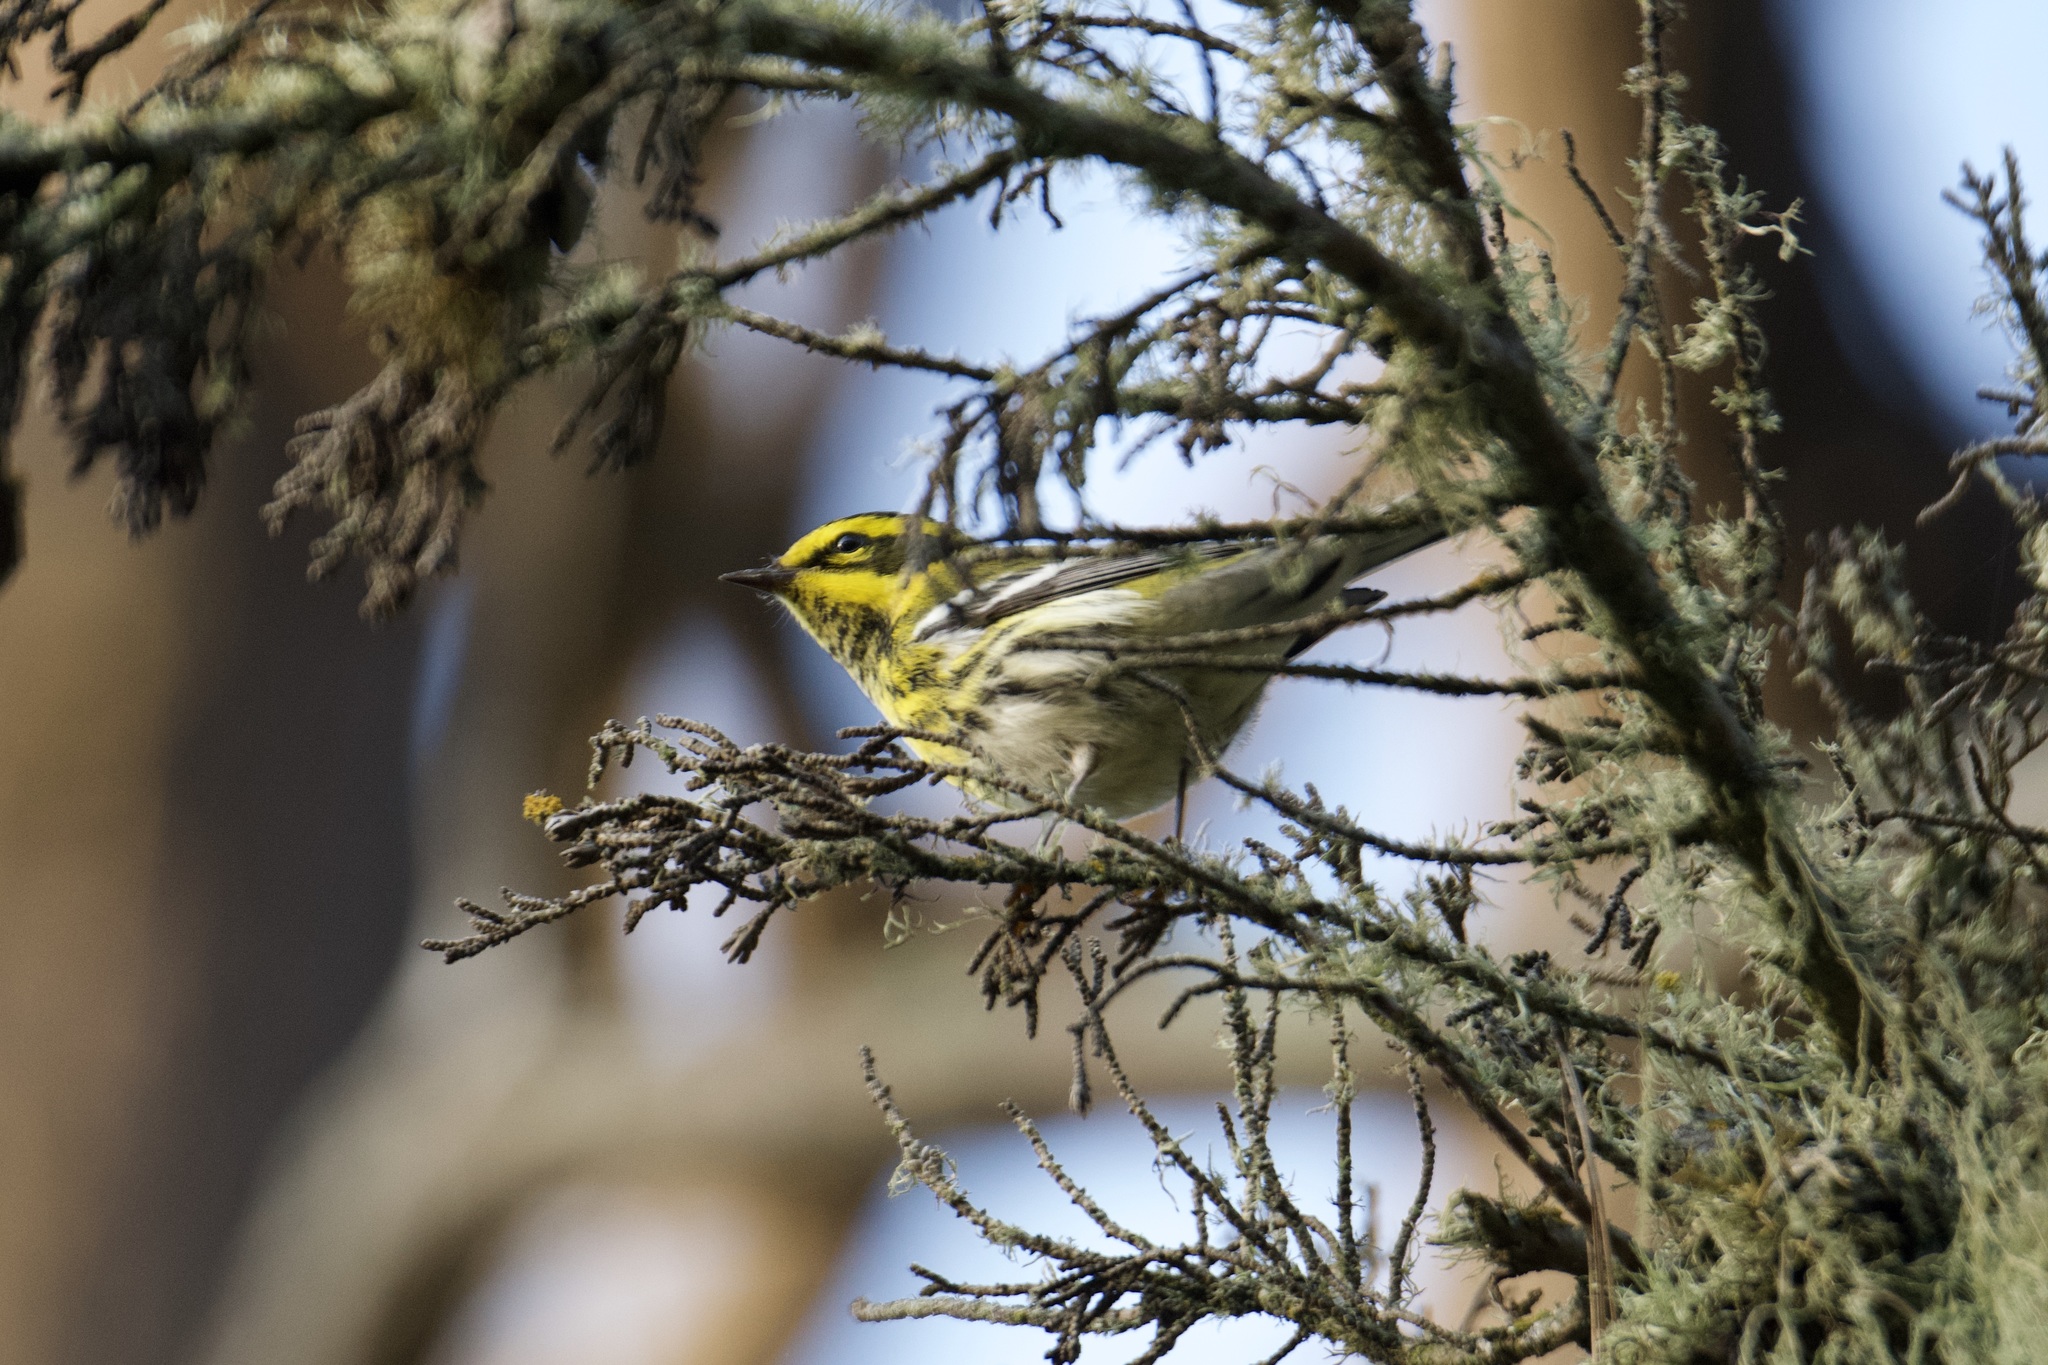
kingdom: Animalia
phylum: Chordata
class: Aves
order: Passeriformes
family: Parulidae
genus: Setophaga
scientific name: Setophaga townsendi
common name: Townsend's warbler
